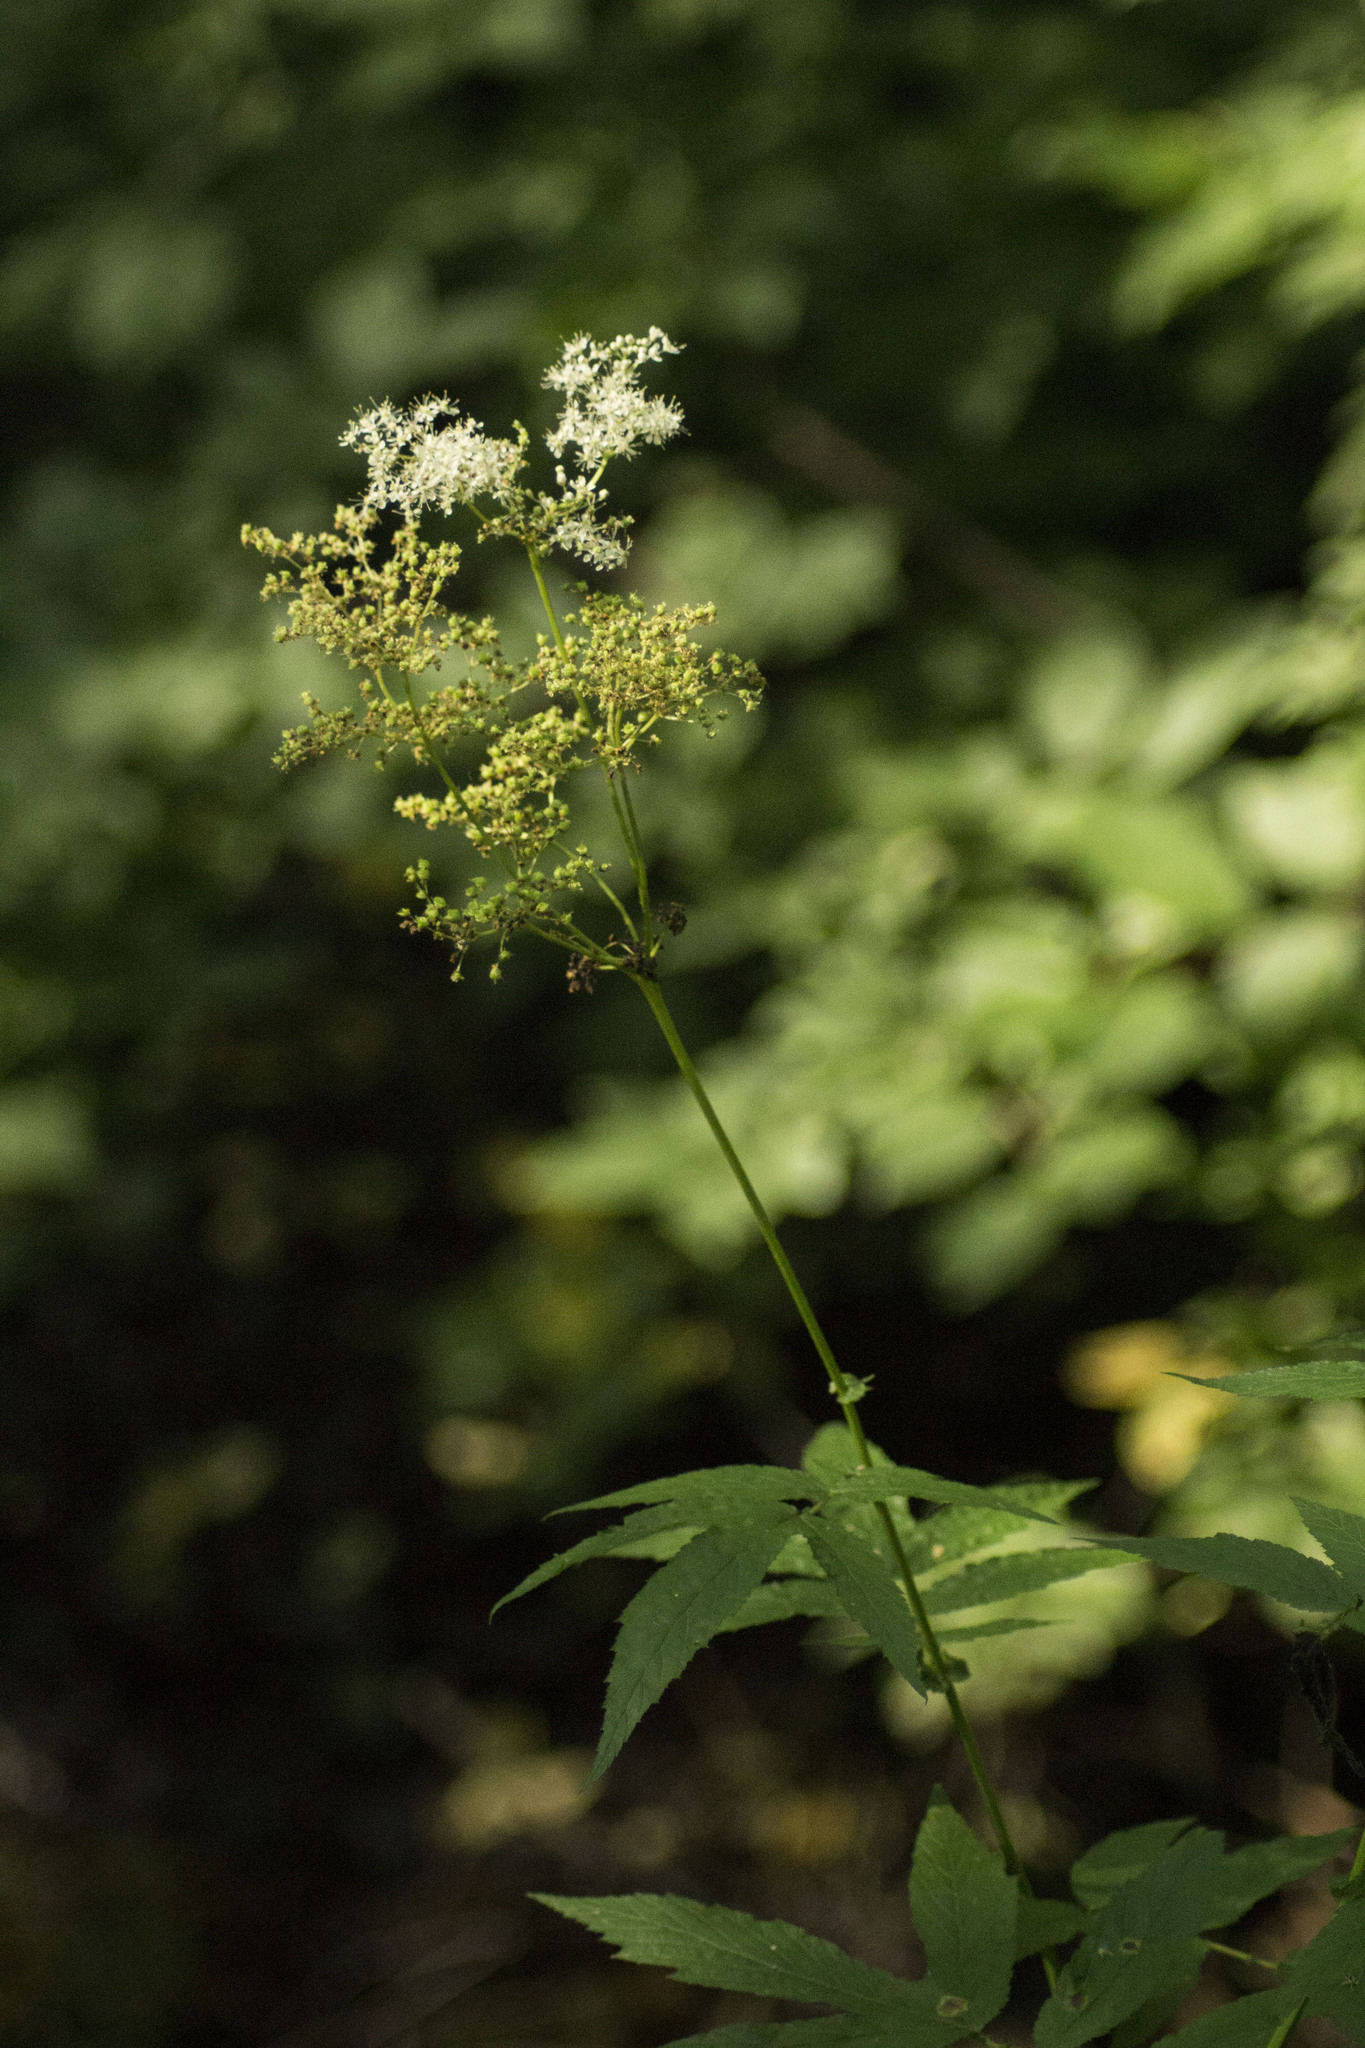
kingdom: Plantae
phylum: Tracheophyta
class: Magnoliopsida
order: Rosales
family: Rosaceae
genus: Filipendula
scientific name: Filipendula ulmaria
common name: Meadowsweet
